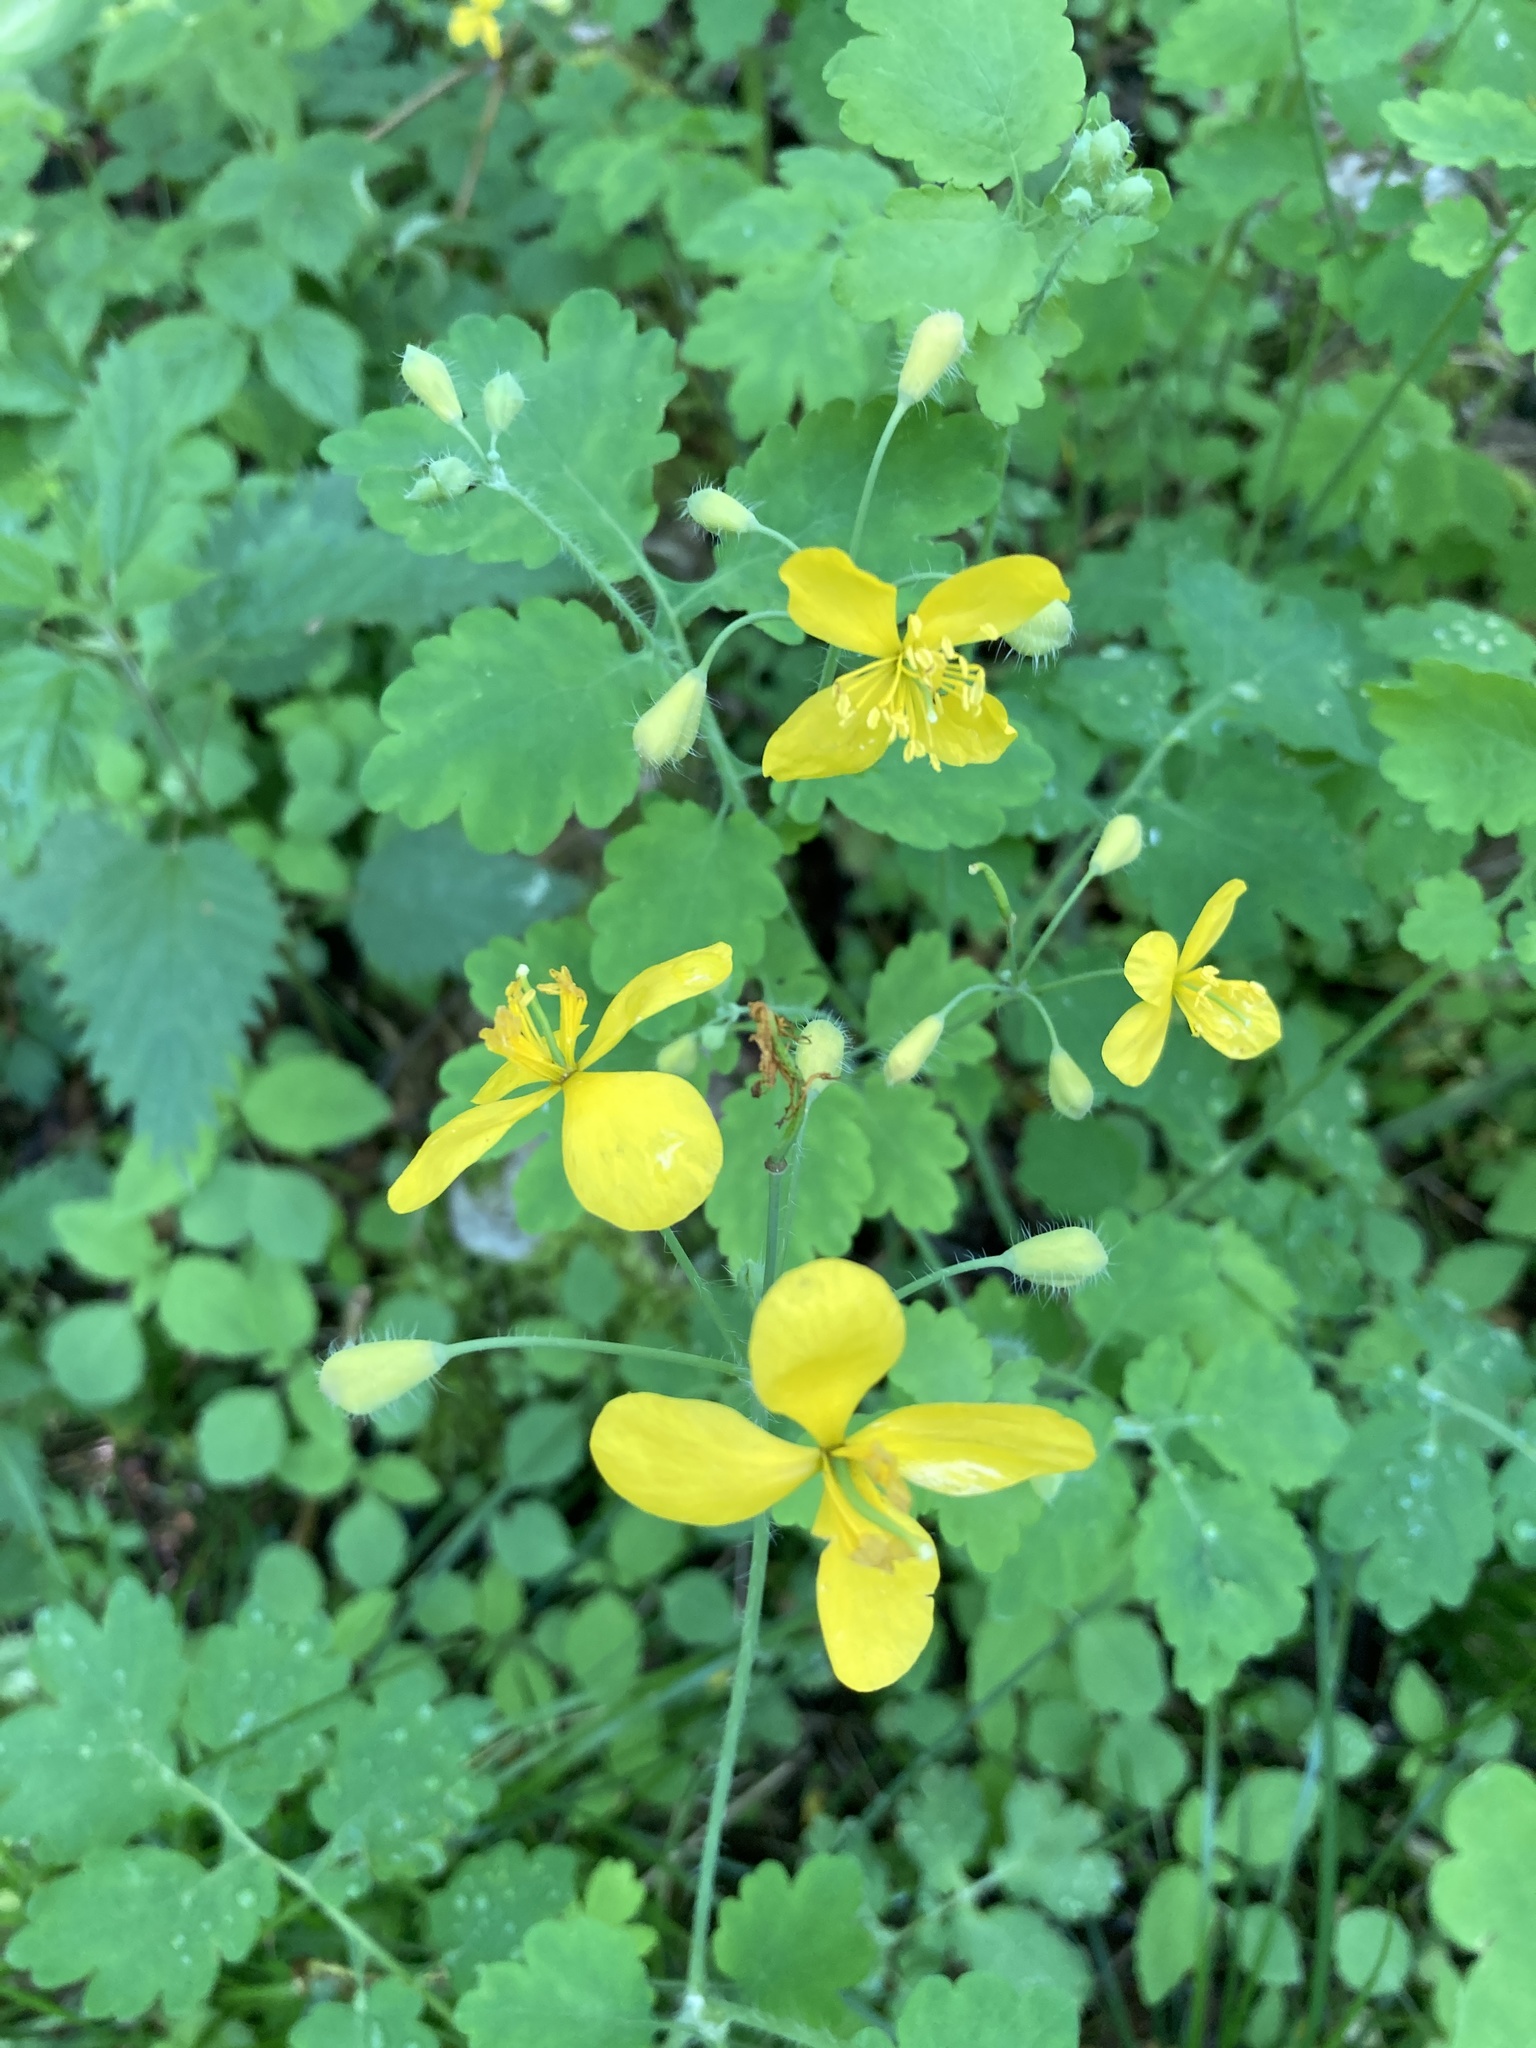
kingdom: Plantae
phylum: Tracheophyta
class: Magnoliopsida
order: Ranunculales
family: Papaveraceae
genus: Chelidonium
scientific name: Chelidonium majus
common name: Greater celandine
